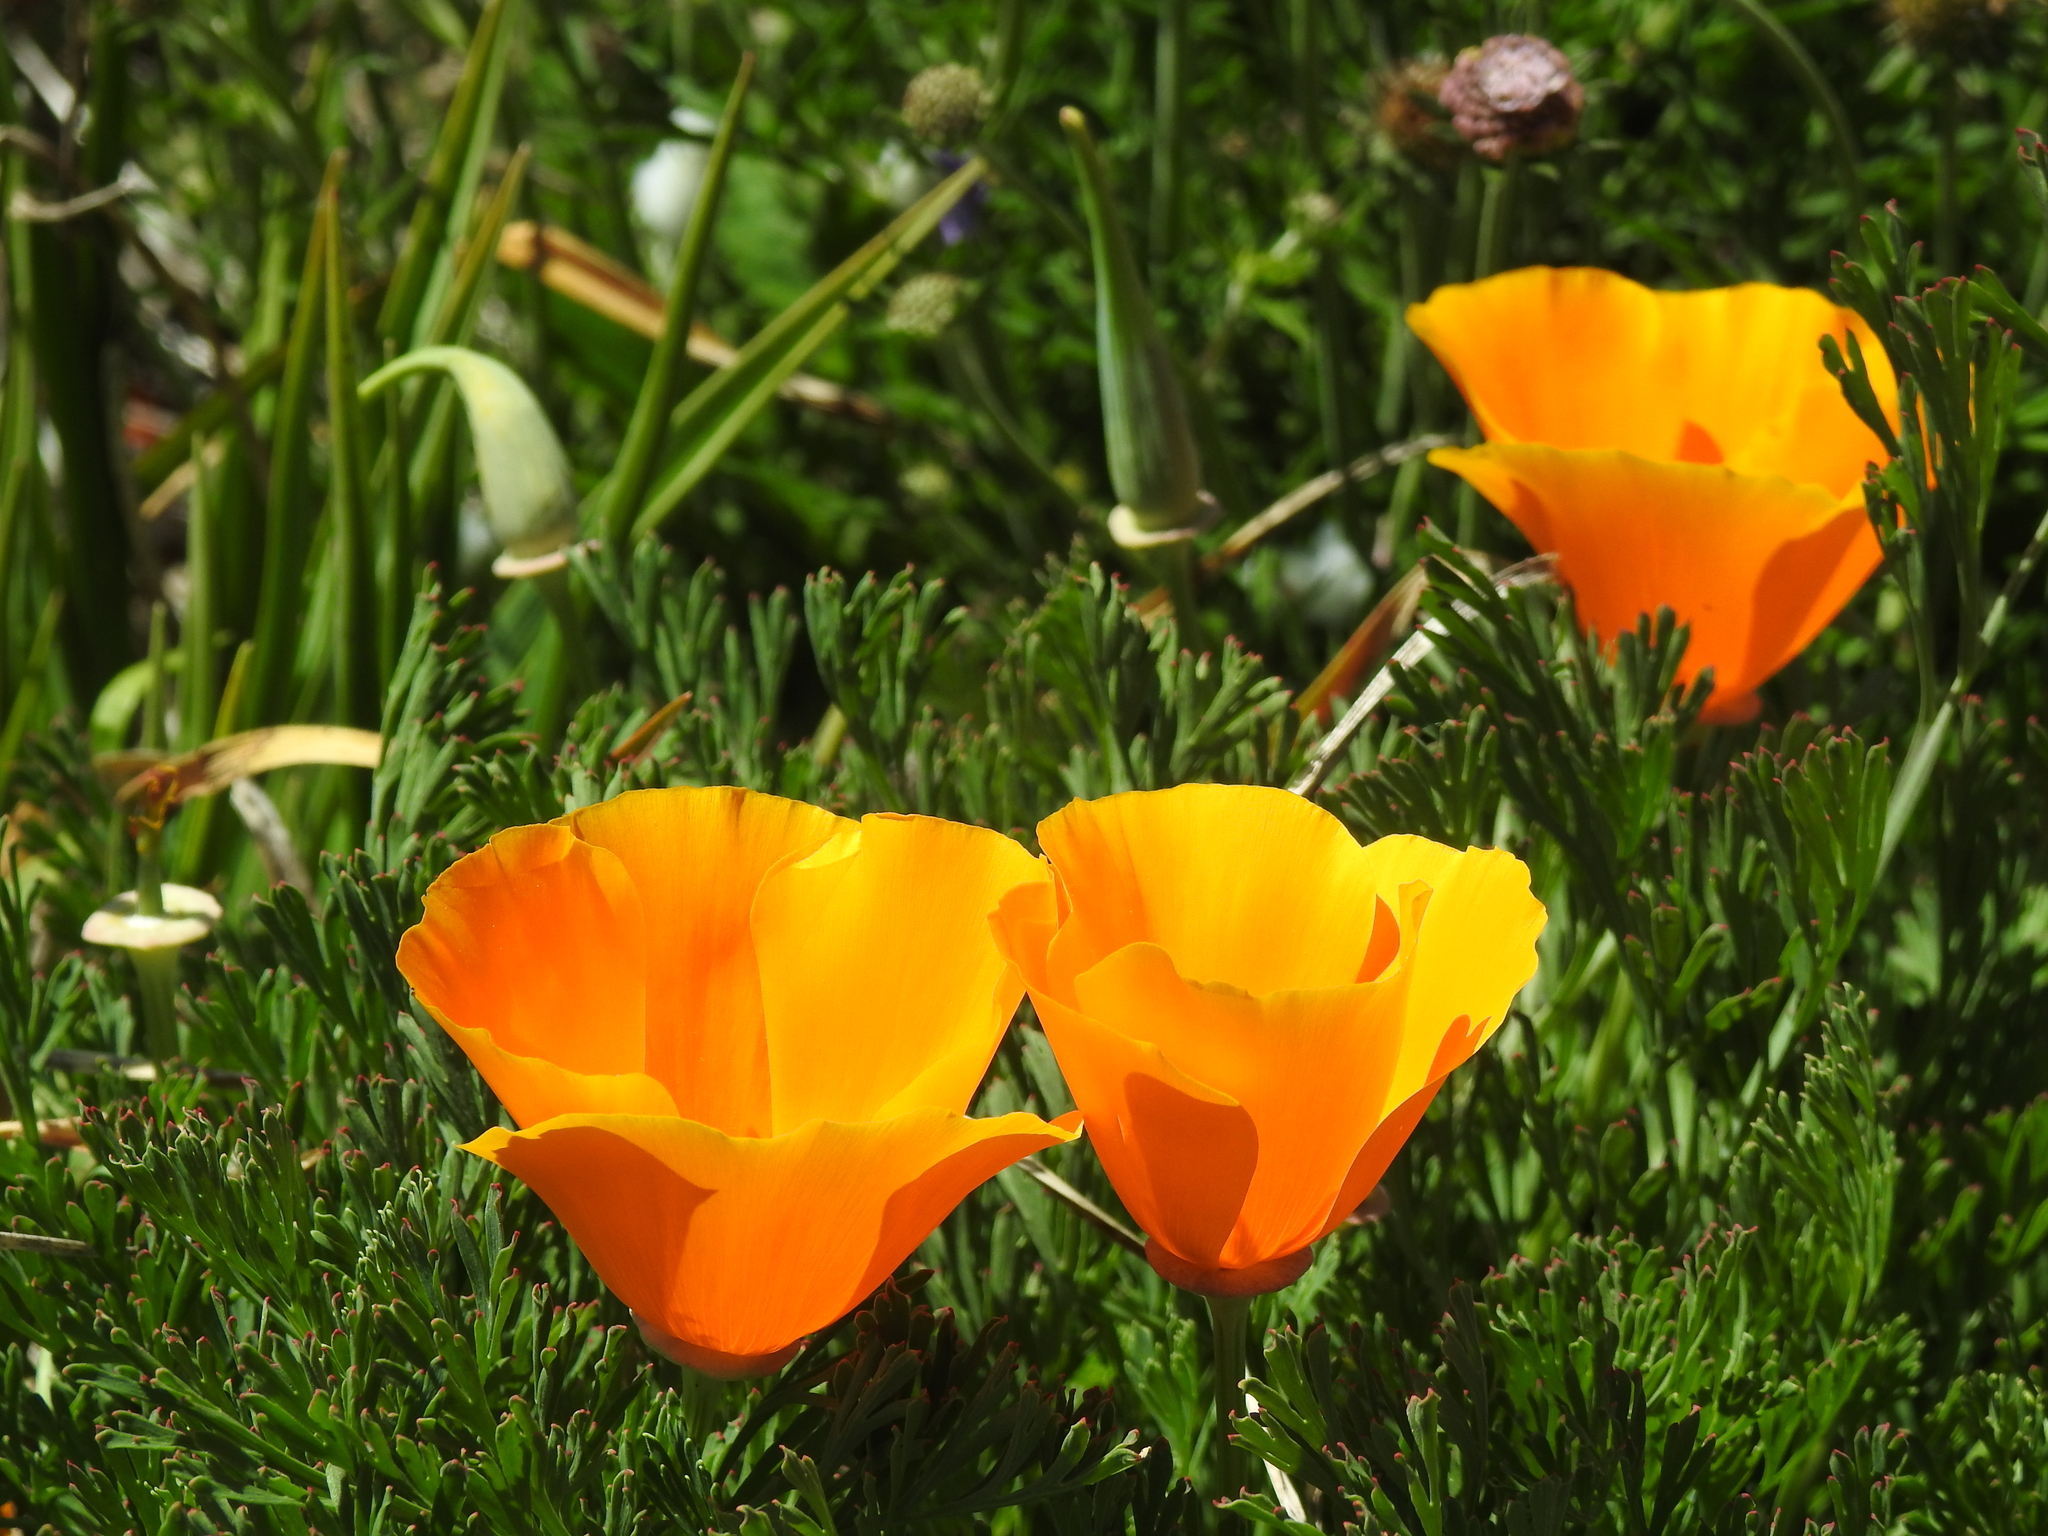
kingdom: Plantae
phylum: Tracheophyta
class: Magnoliopsida
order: Ranunculales
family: Papaveraceae
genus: Eschscholzia
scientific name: Eschscholzia californica
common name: California poppy
